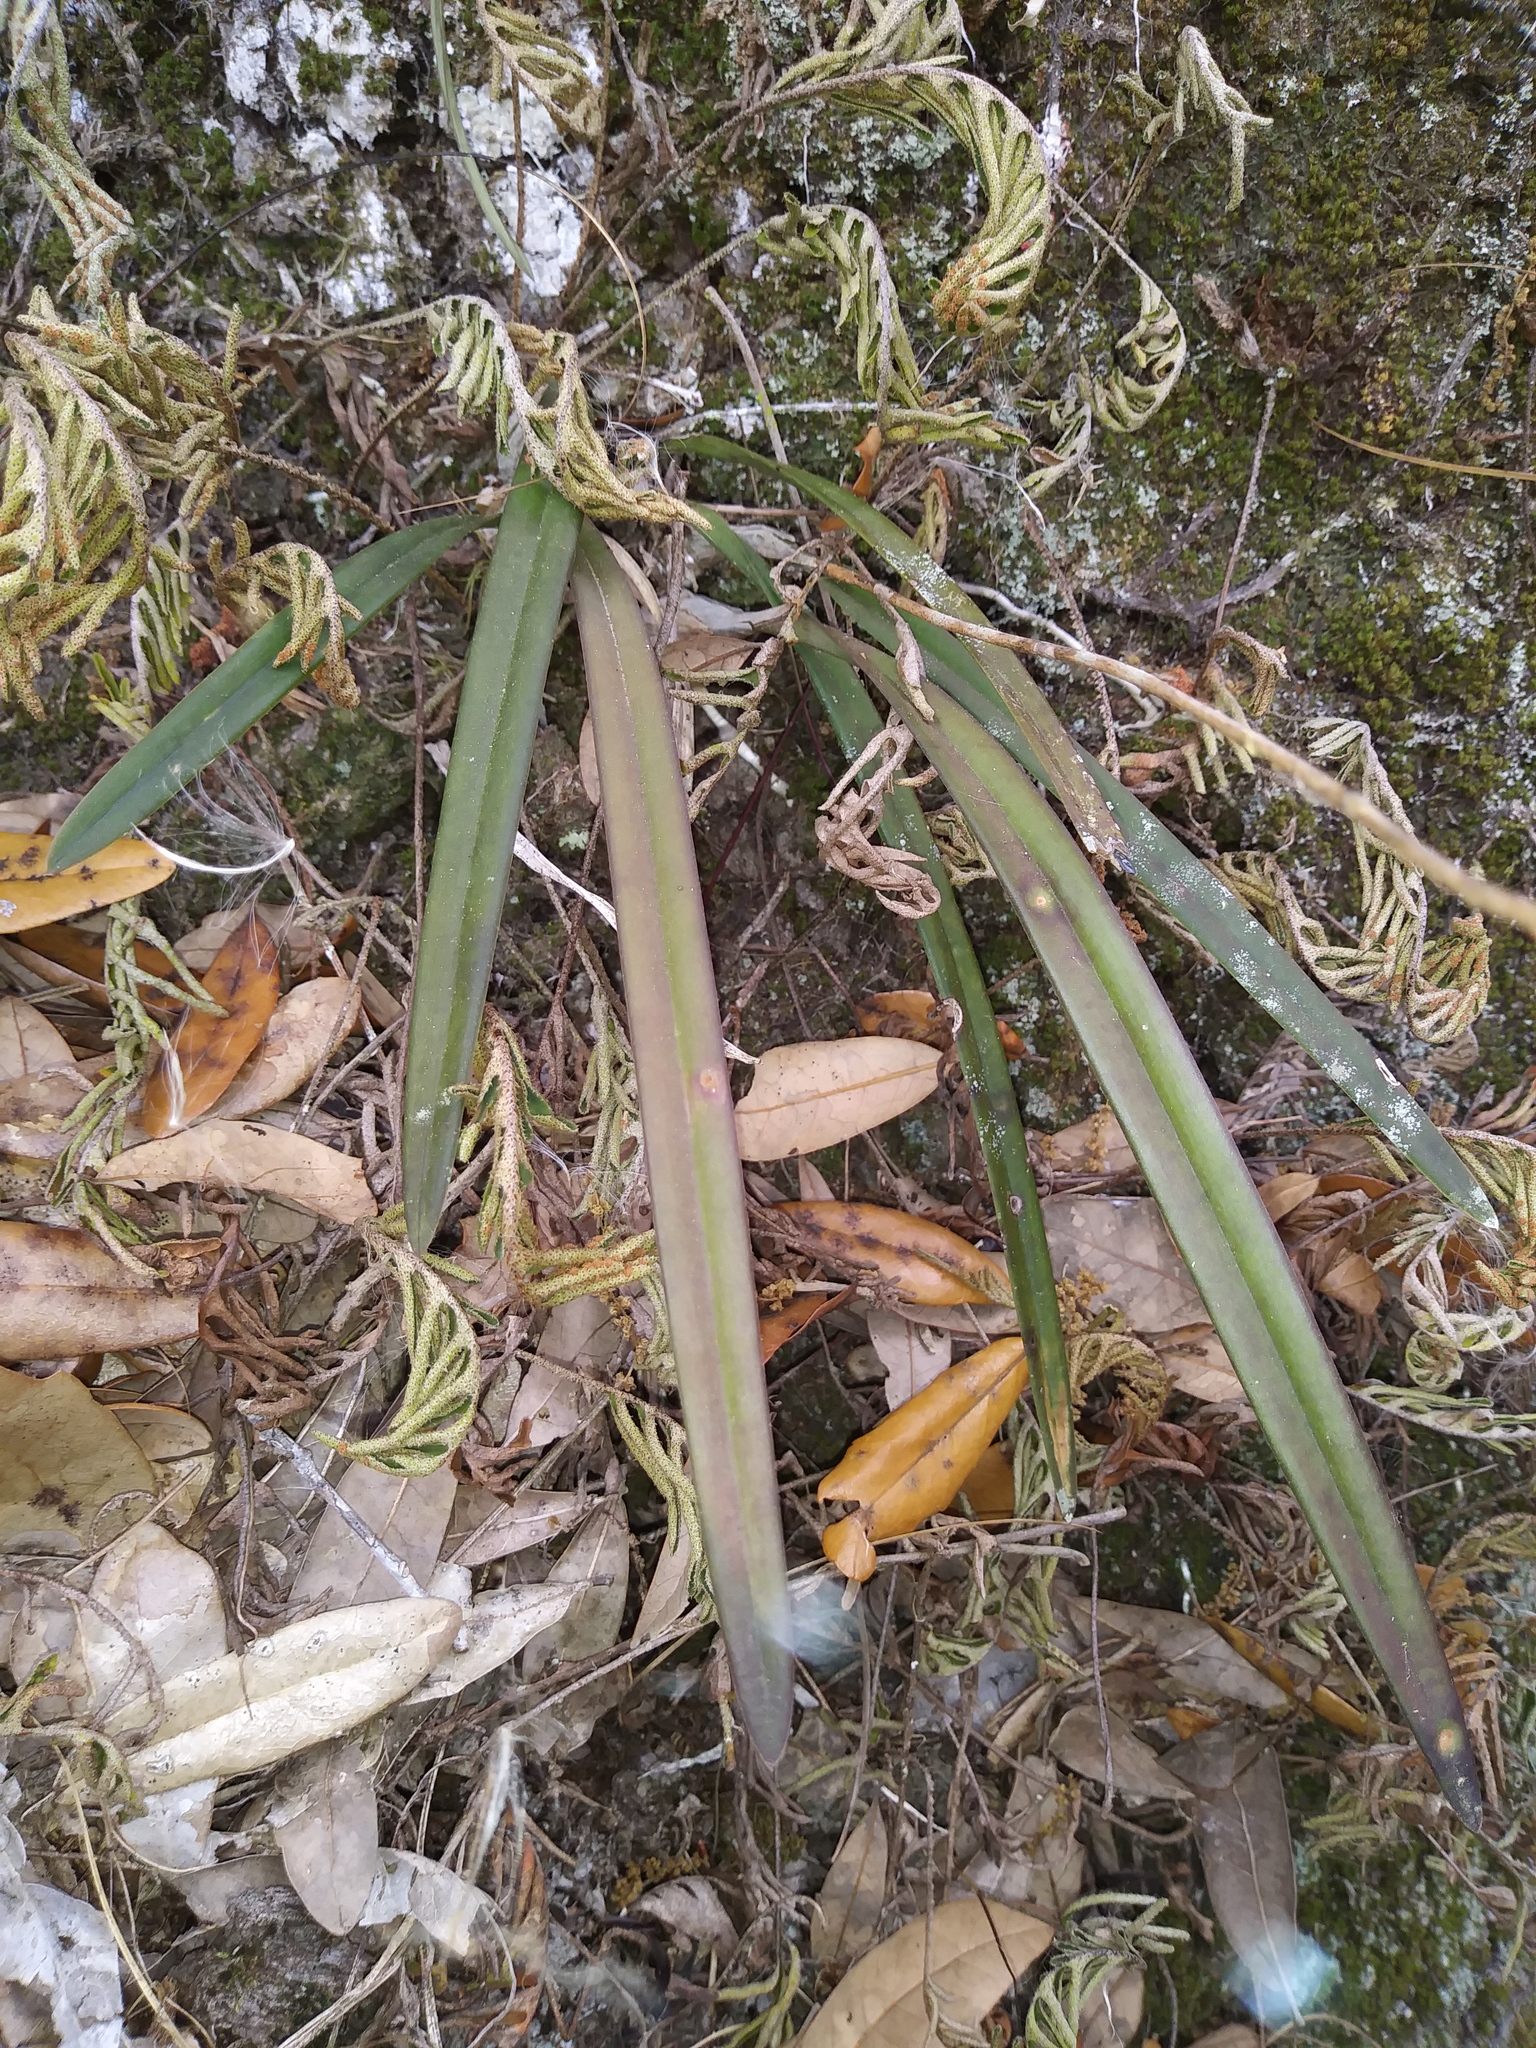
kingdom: Plantae
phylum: Tracheophyta
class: Liliopsida
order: Asparagales
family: Orchidaceae
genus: Encyclia
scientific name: Encyclia tampensis
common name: Florida butterfly orchid
